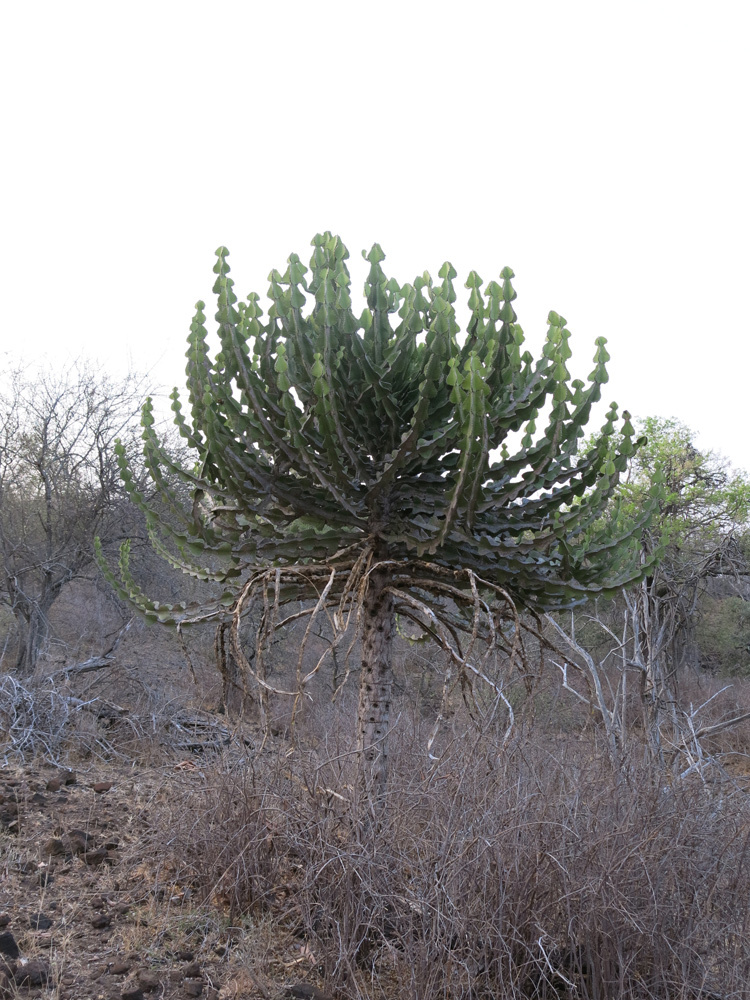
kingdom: Plantae
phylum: Tracheophyta
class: Magnoliopsida
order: Malpighiales
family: Euphorbiaceae
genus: Euphorbia
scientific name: Euphorbia cooperi
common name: Candelabra tree
